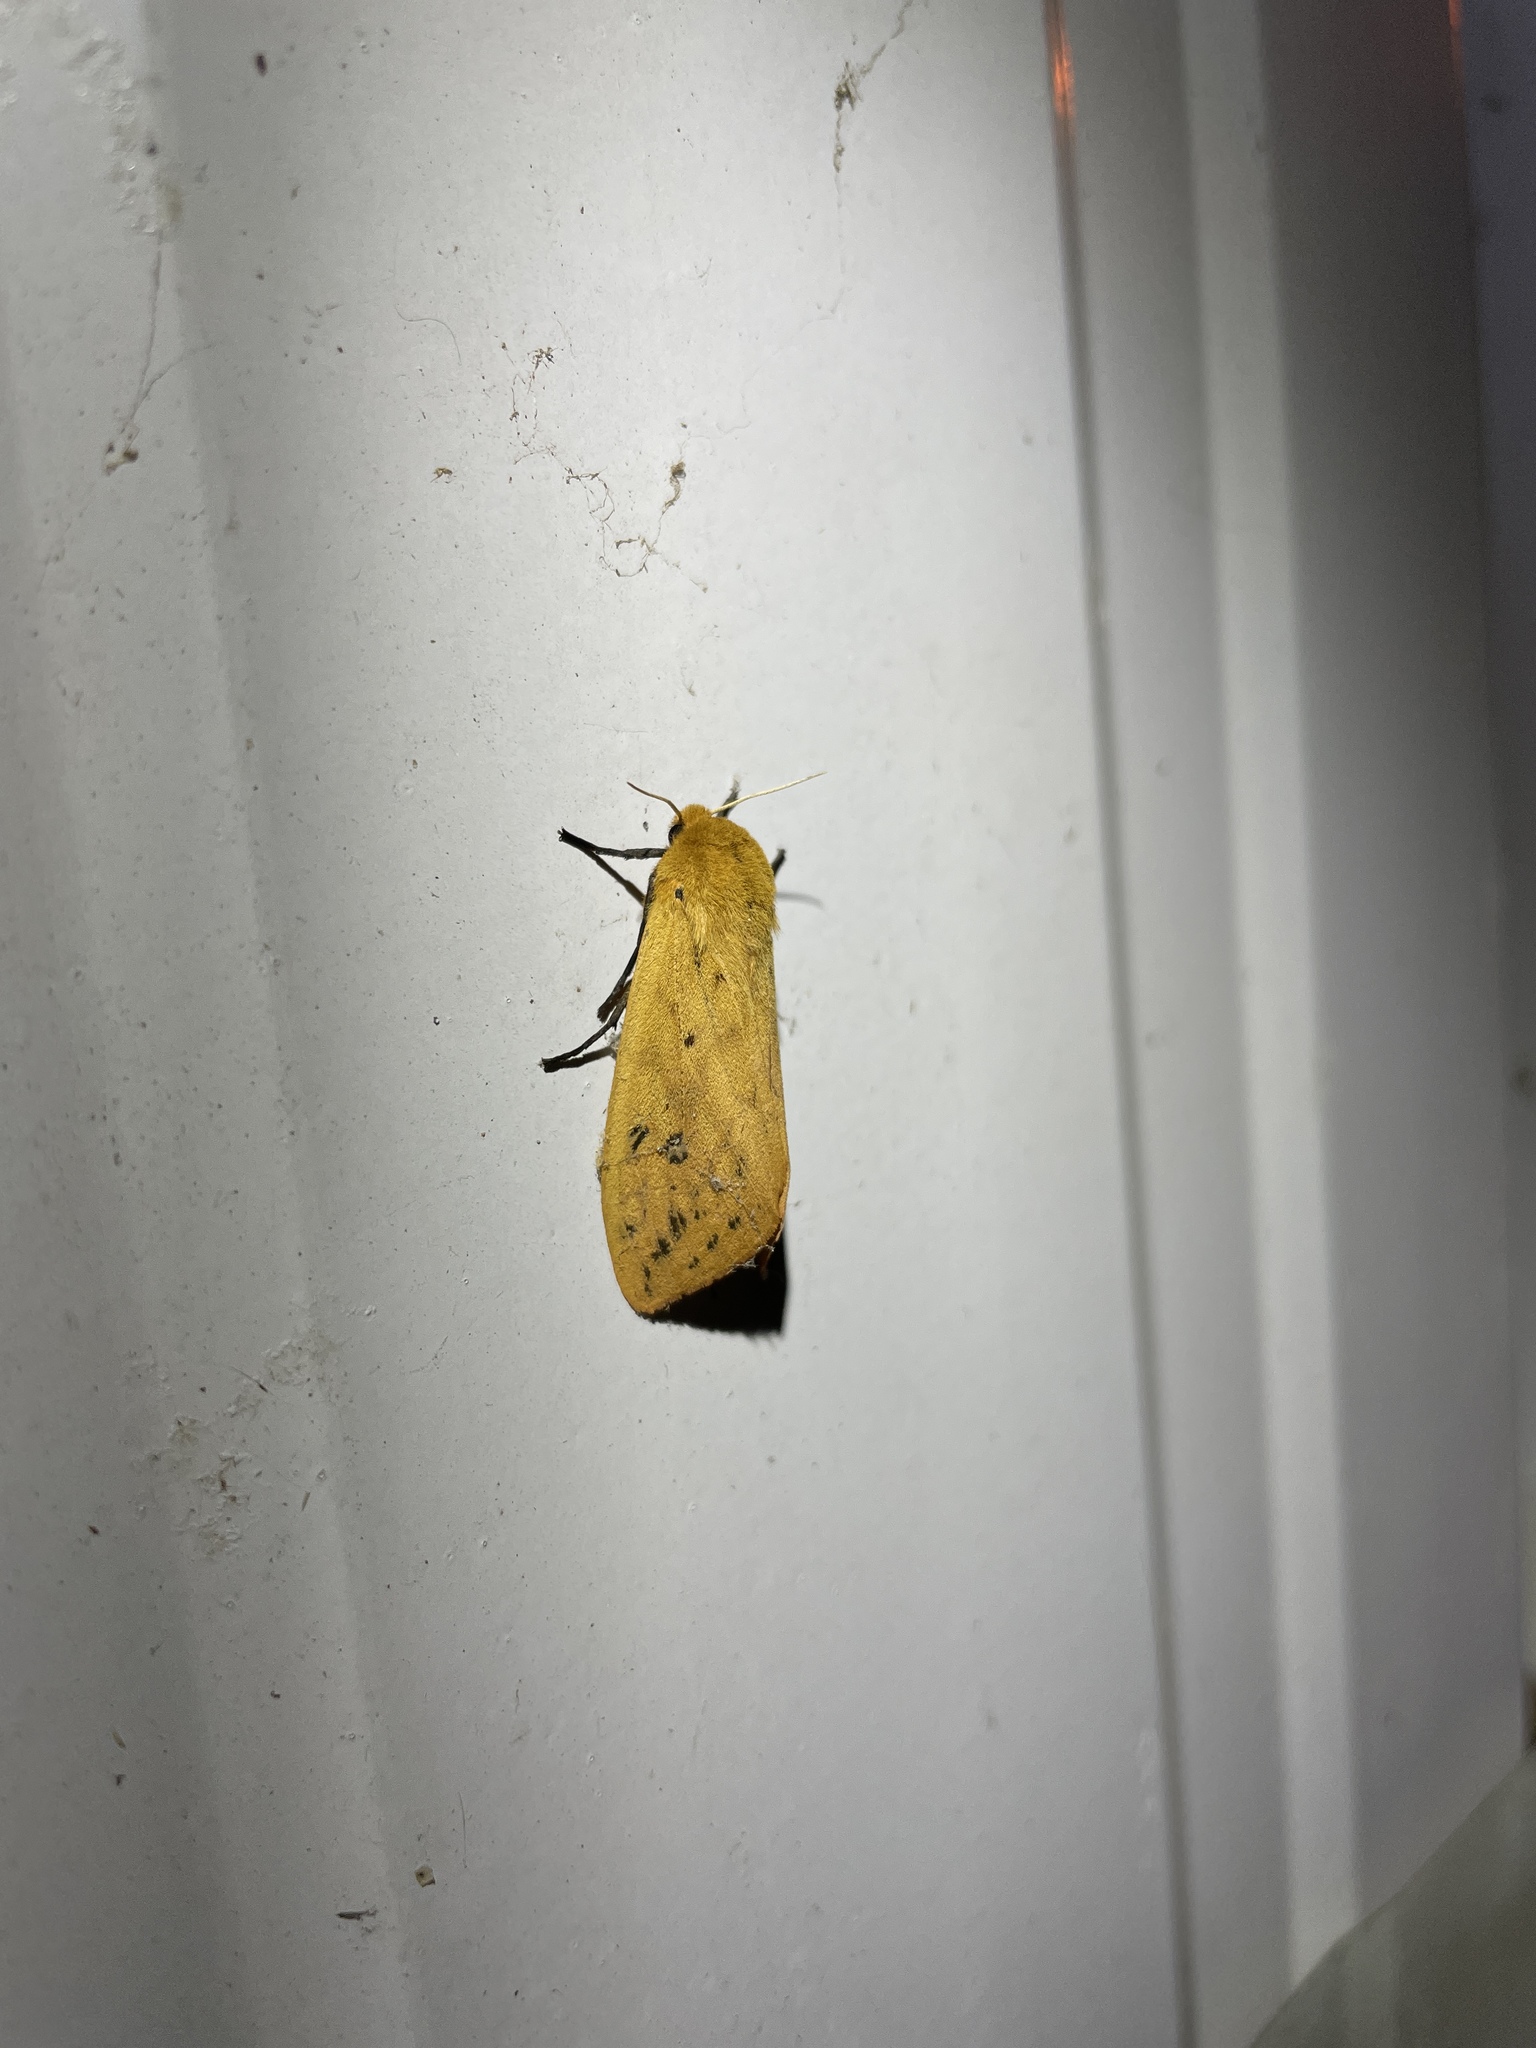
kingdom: Animalia
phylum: Arthropoda
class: Insecta
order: Lepidoptera
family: Erebidae
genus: Pyrrharctia
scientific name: Pyrrharctia isabella
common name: Isabella tiger moth
